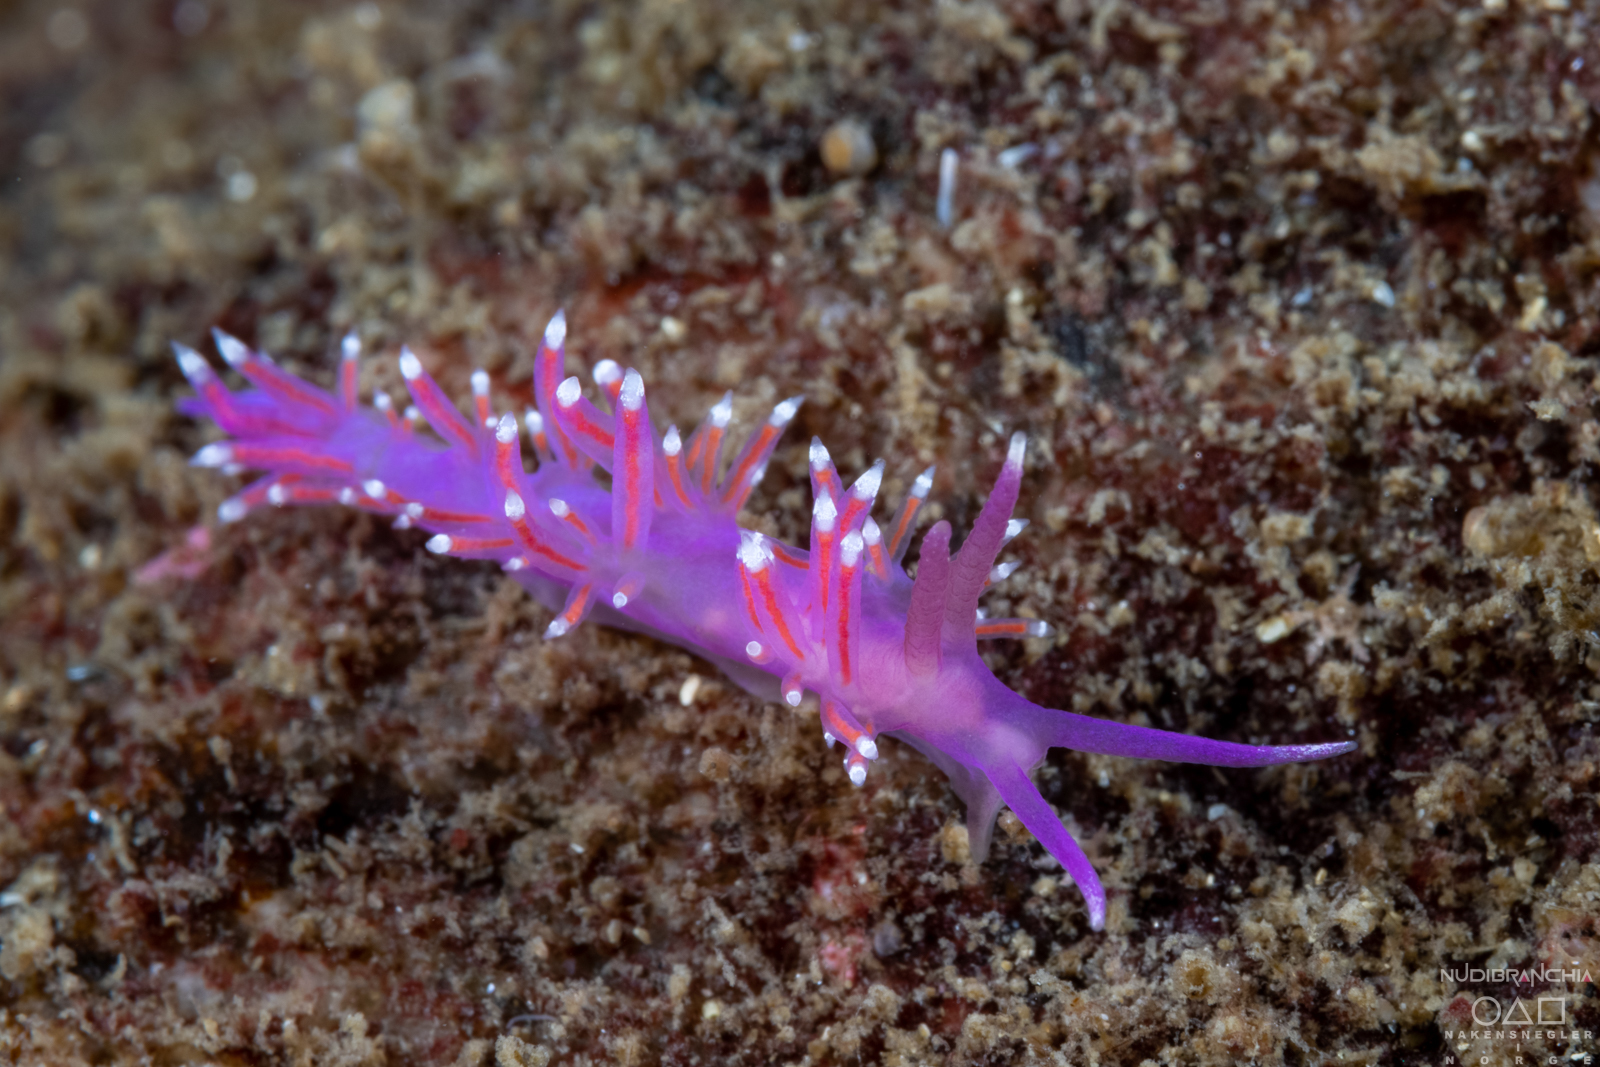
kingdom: Animalia
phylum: Mollusca
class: Gastropoda
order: Nudibranchia
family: Flabellinidae
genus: Edmundsella
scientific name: Edmundsella pedata
